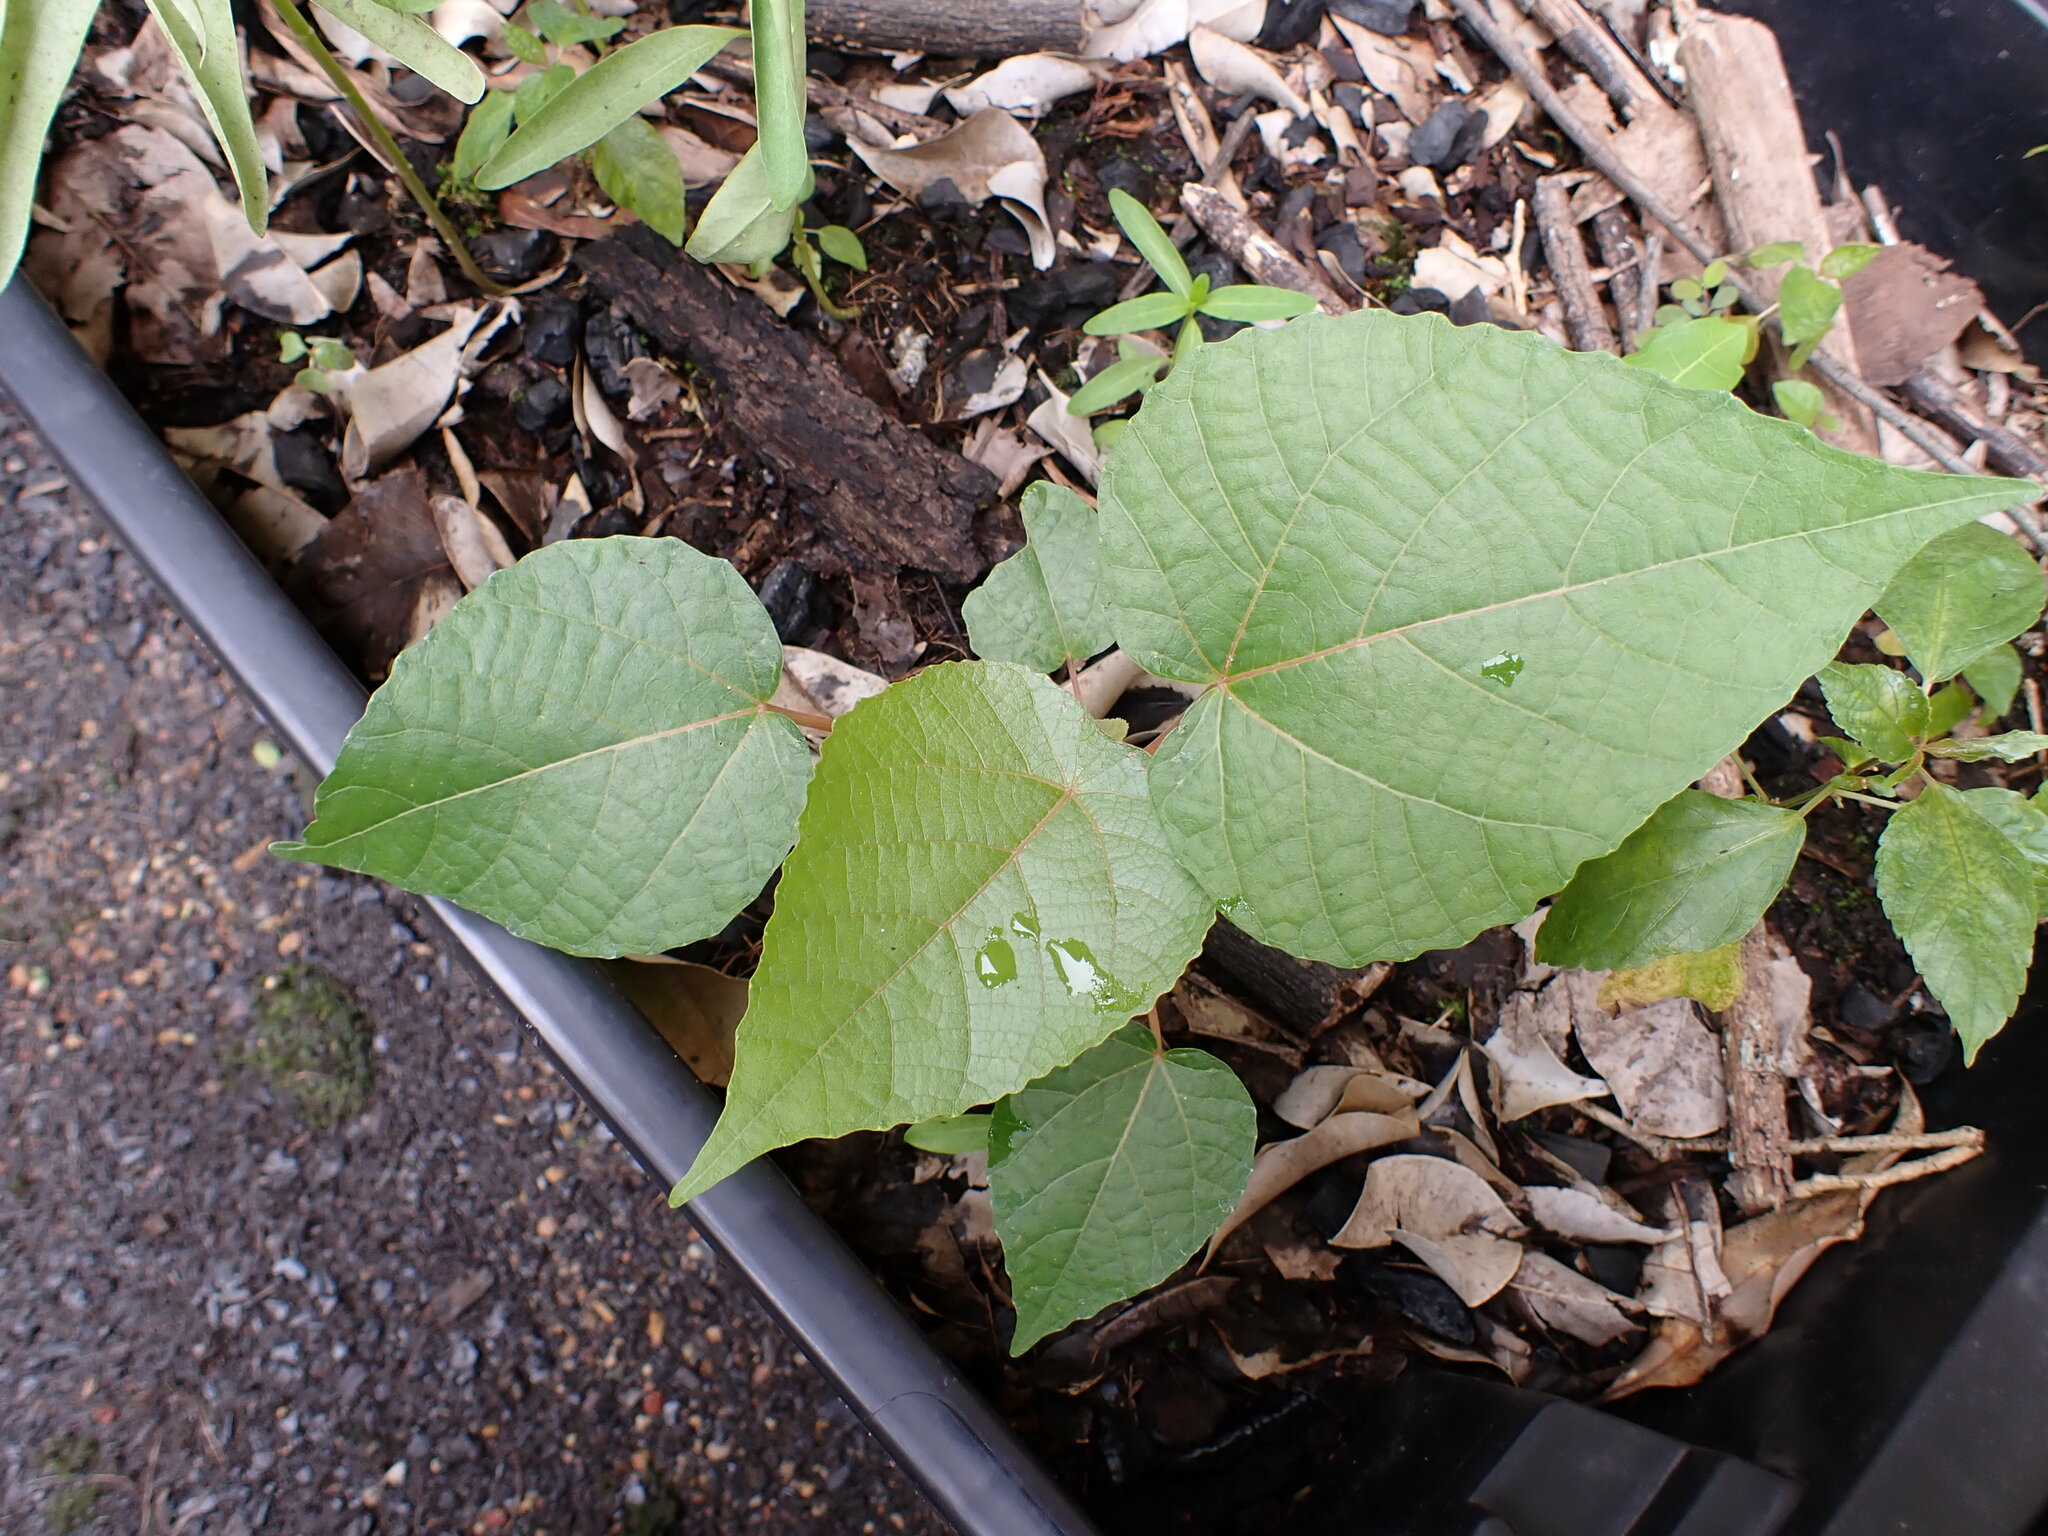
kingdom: Plantae
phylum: Tracheophyta
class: Magnoliopsida
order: Malpighiales
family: Euphorbiaceae
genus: Macaranga
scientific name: Macaranga tanarius
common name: Parasol leaf tree
